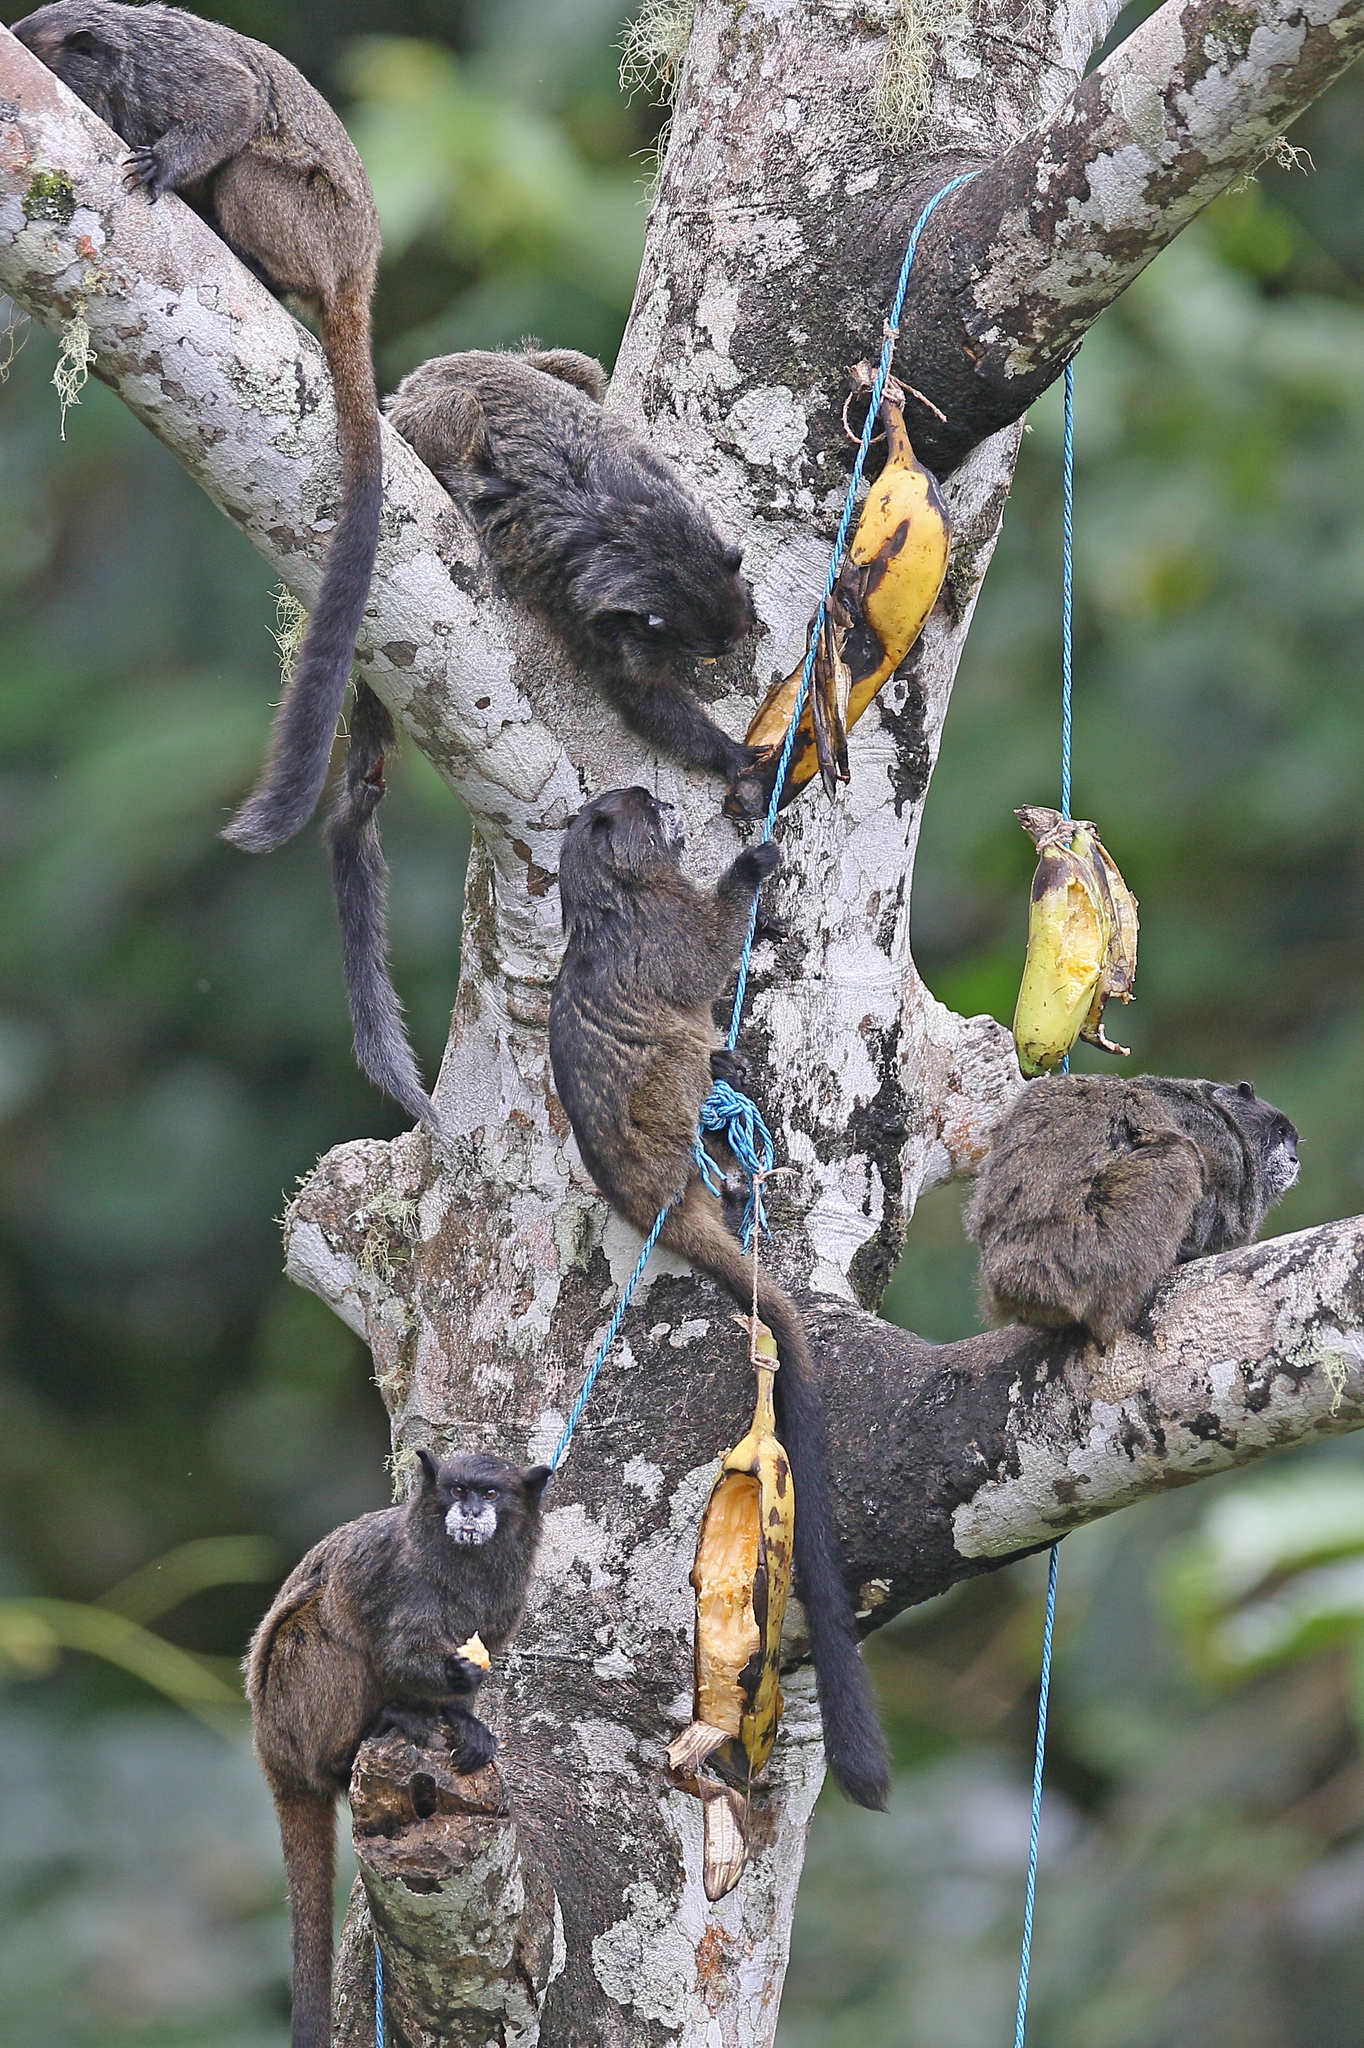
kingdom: Animalia
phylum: Chordata
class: Mammalia
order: Primates
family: Callitrichidae
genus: Leontocebus
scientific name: Leontocebus nigricollis
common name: Black-mantled tamarin
